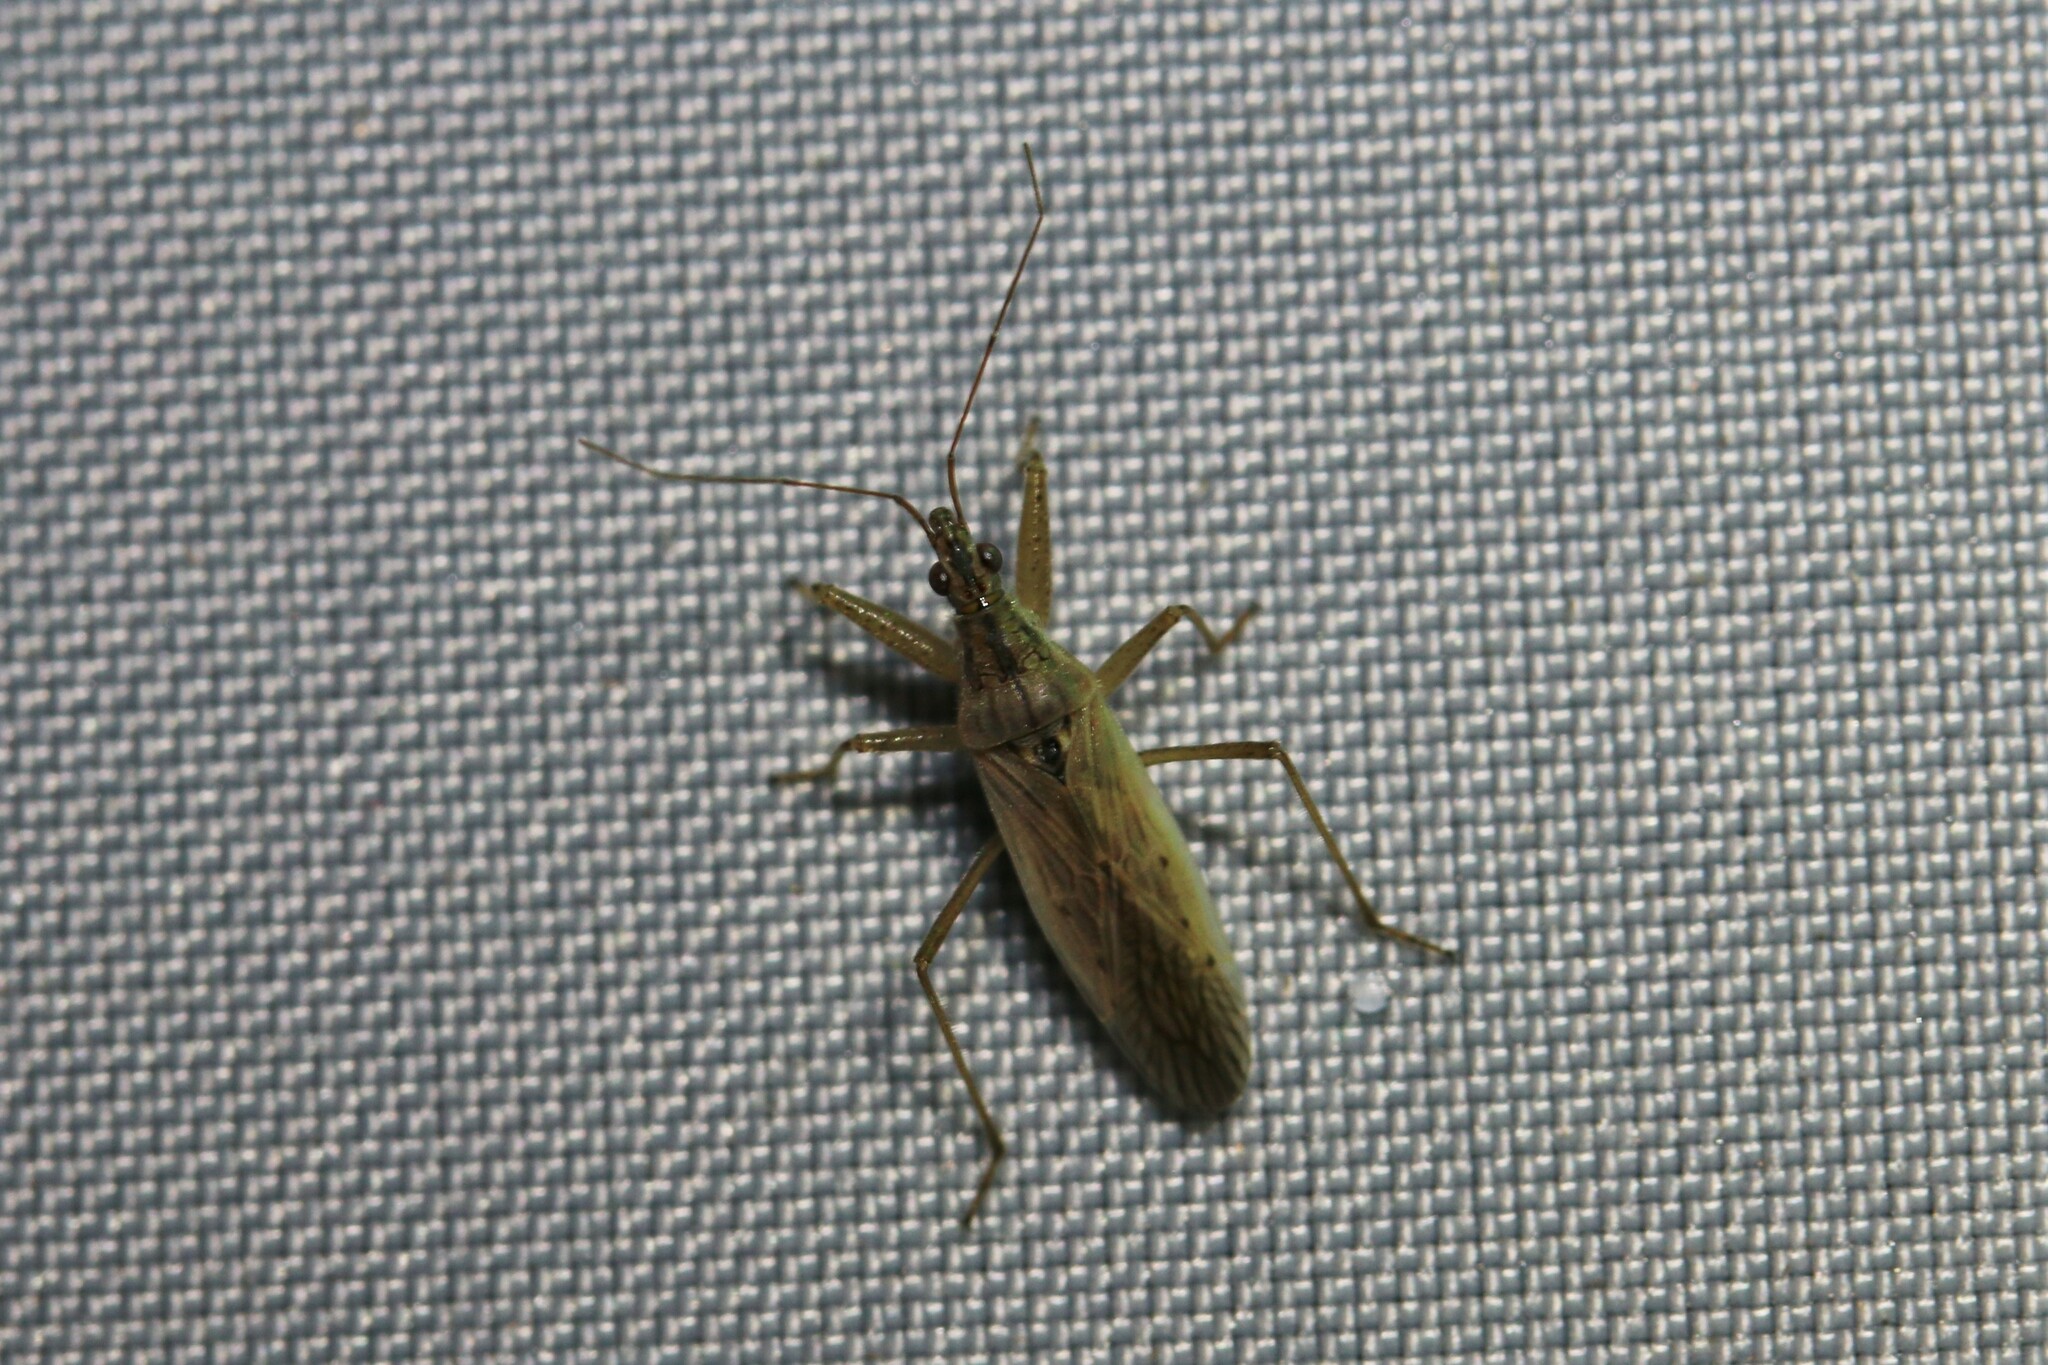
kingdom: Animalia
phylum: Arthropoda
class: Insecta
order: Hemiptera
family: Nabidae
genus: Nabis
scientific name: Nabis
